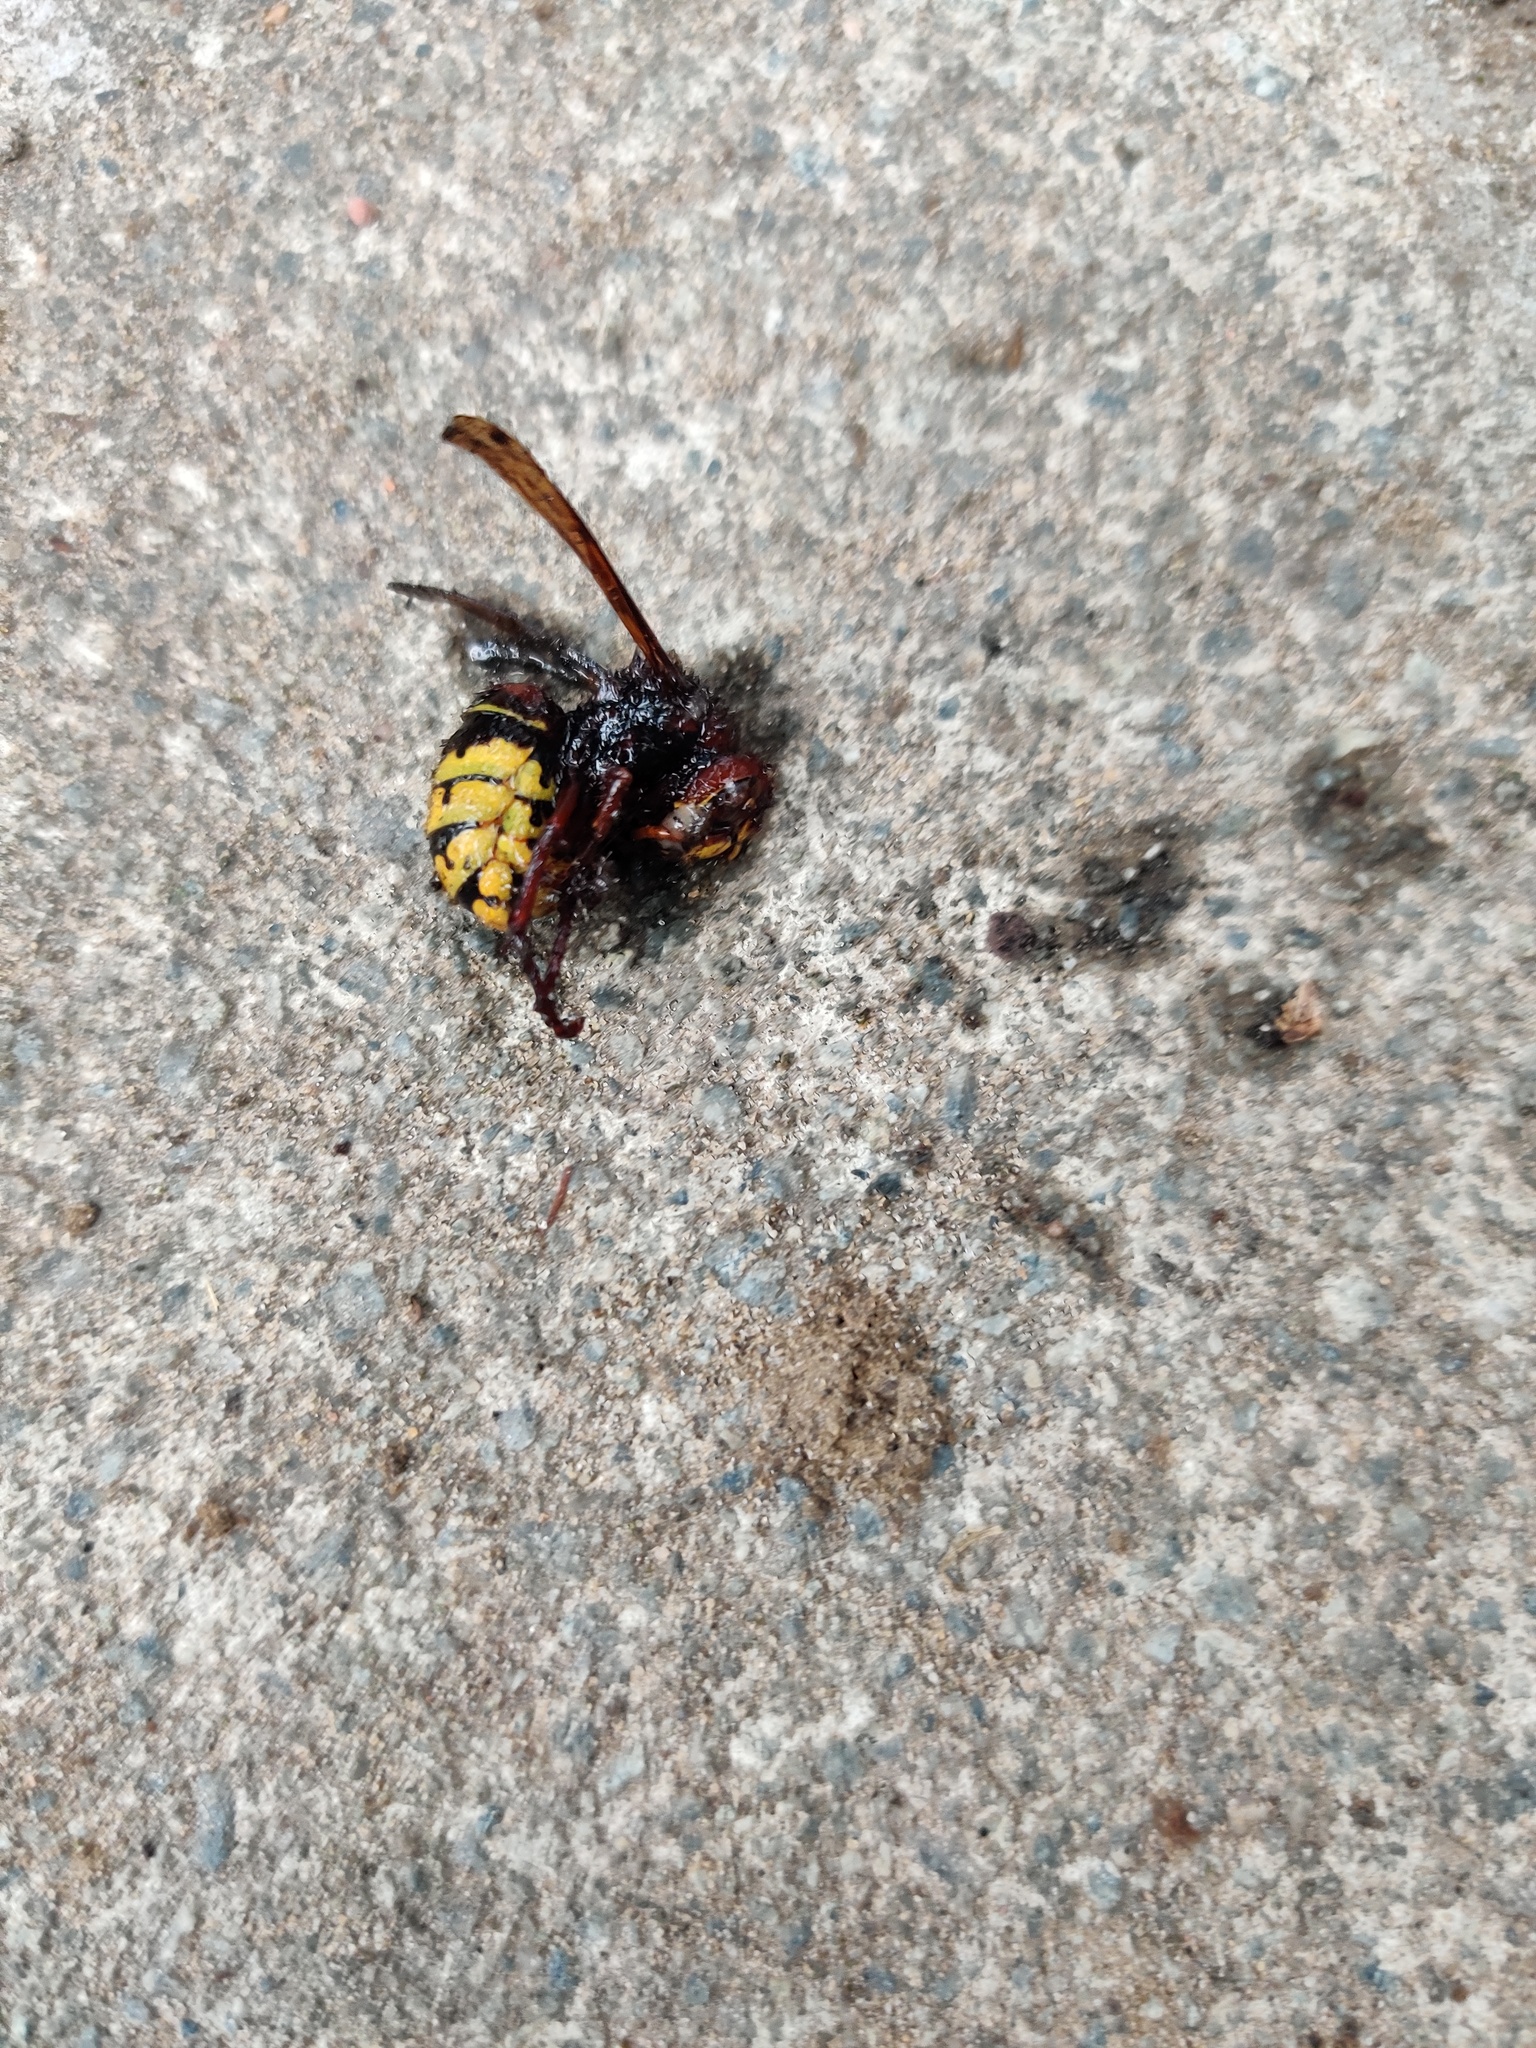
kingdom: Animalia
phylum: Arthropoda
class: Insecta
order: Hymenoptera
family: Vespidae
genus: Vespa
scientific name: Vespa crabro
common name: Hornet
